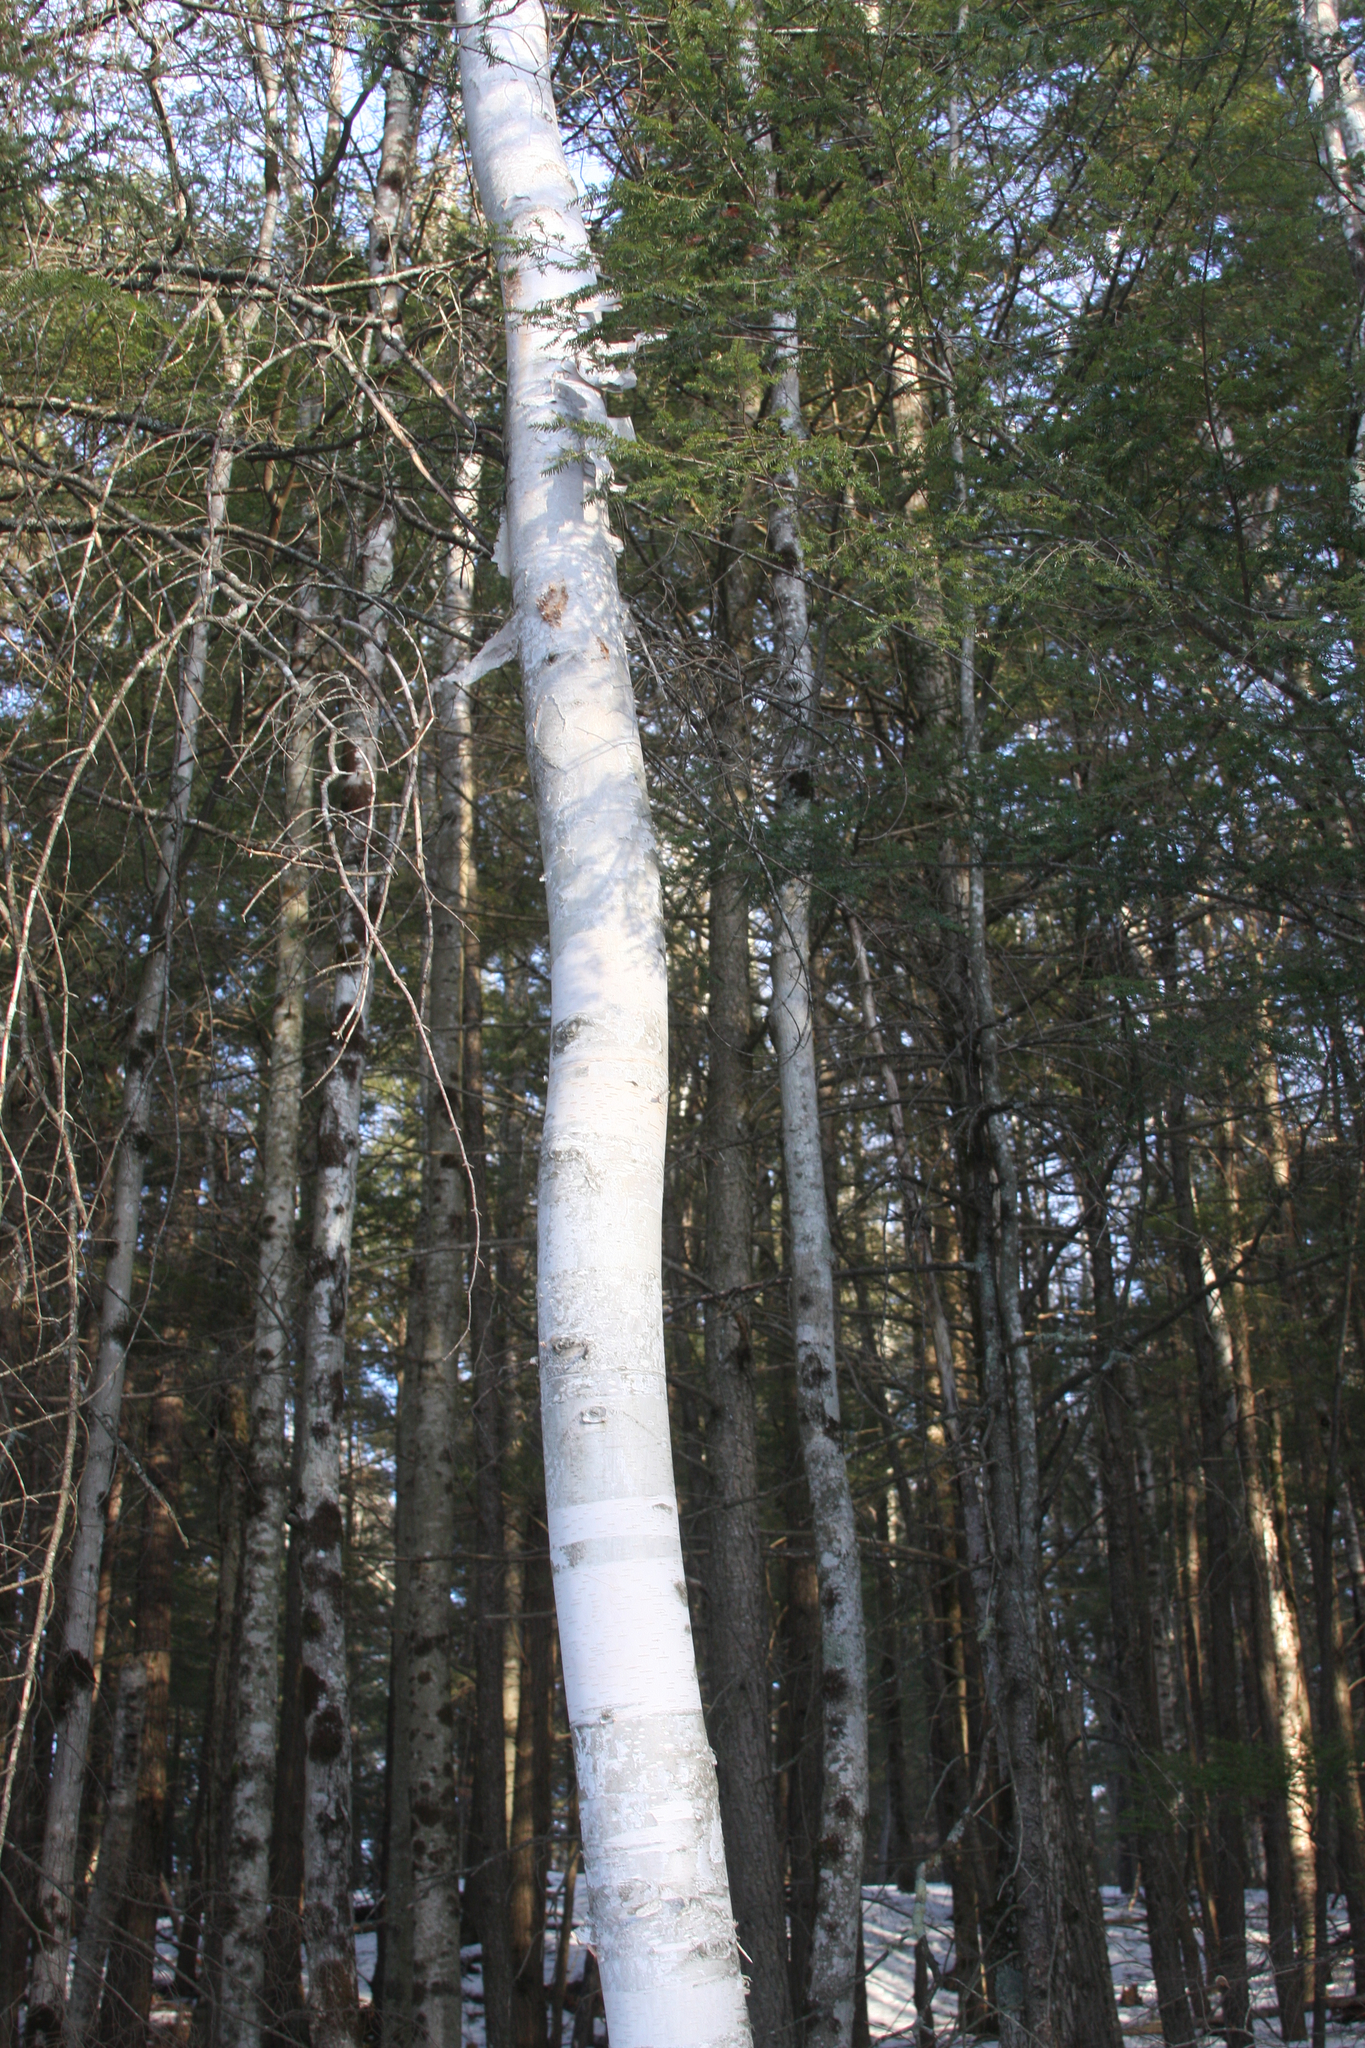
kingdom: Plantae
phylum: Tracheophyta
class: Magnoliopsida
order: Fagales
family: Betulaceae
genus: Betula
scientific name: Betula papyrifera
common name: Paper birch
